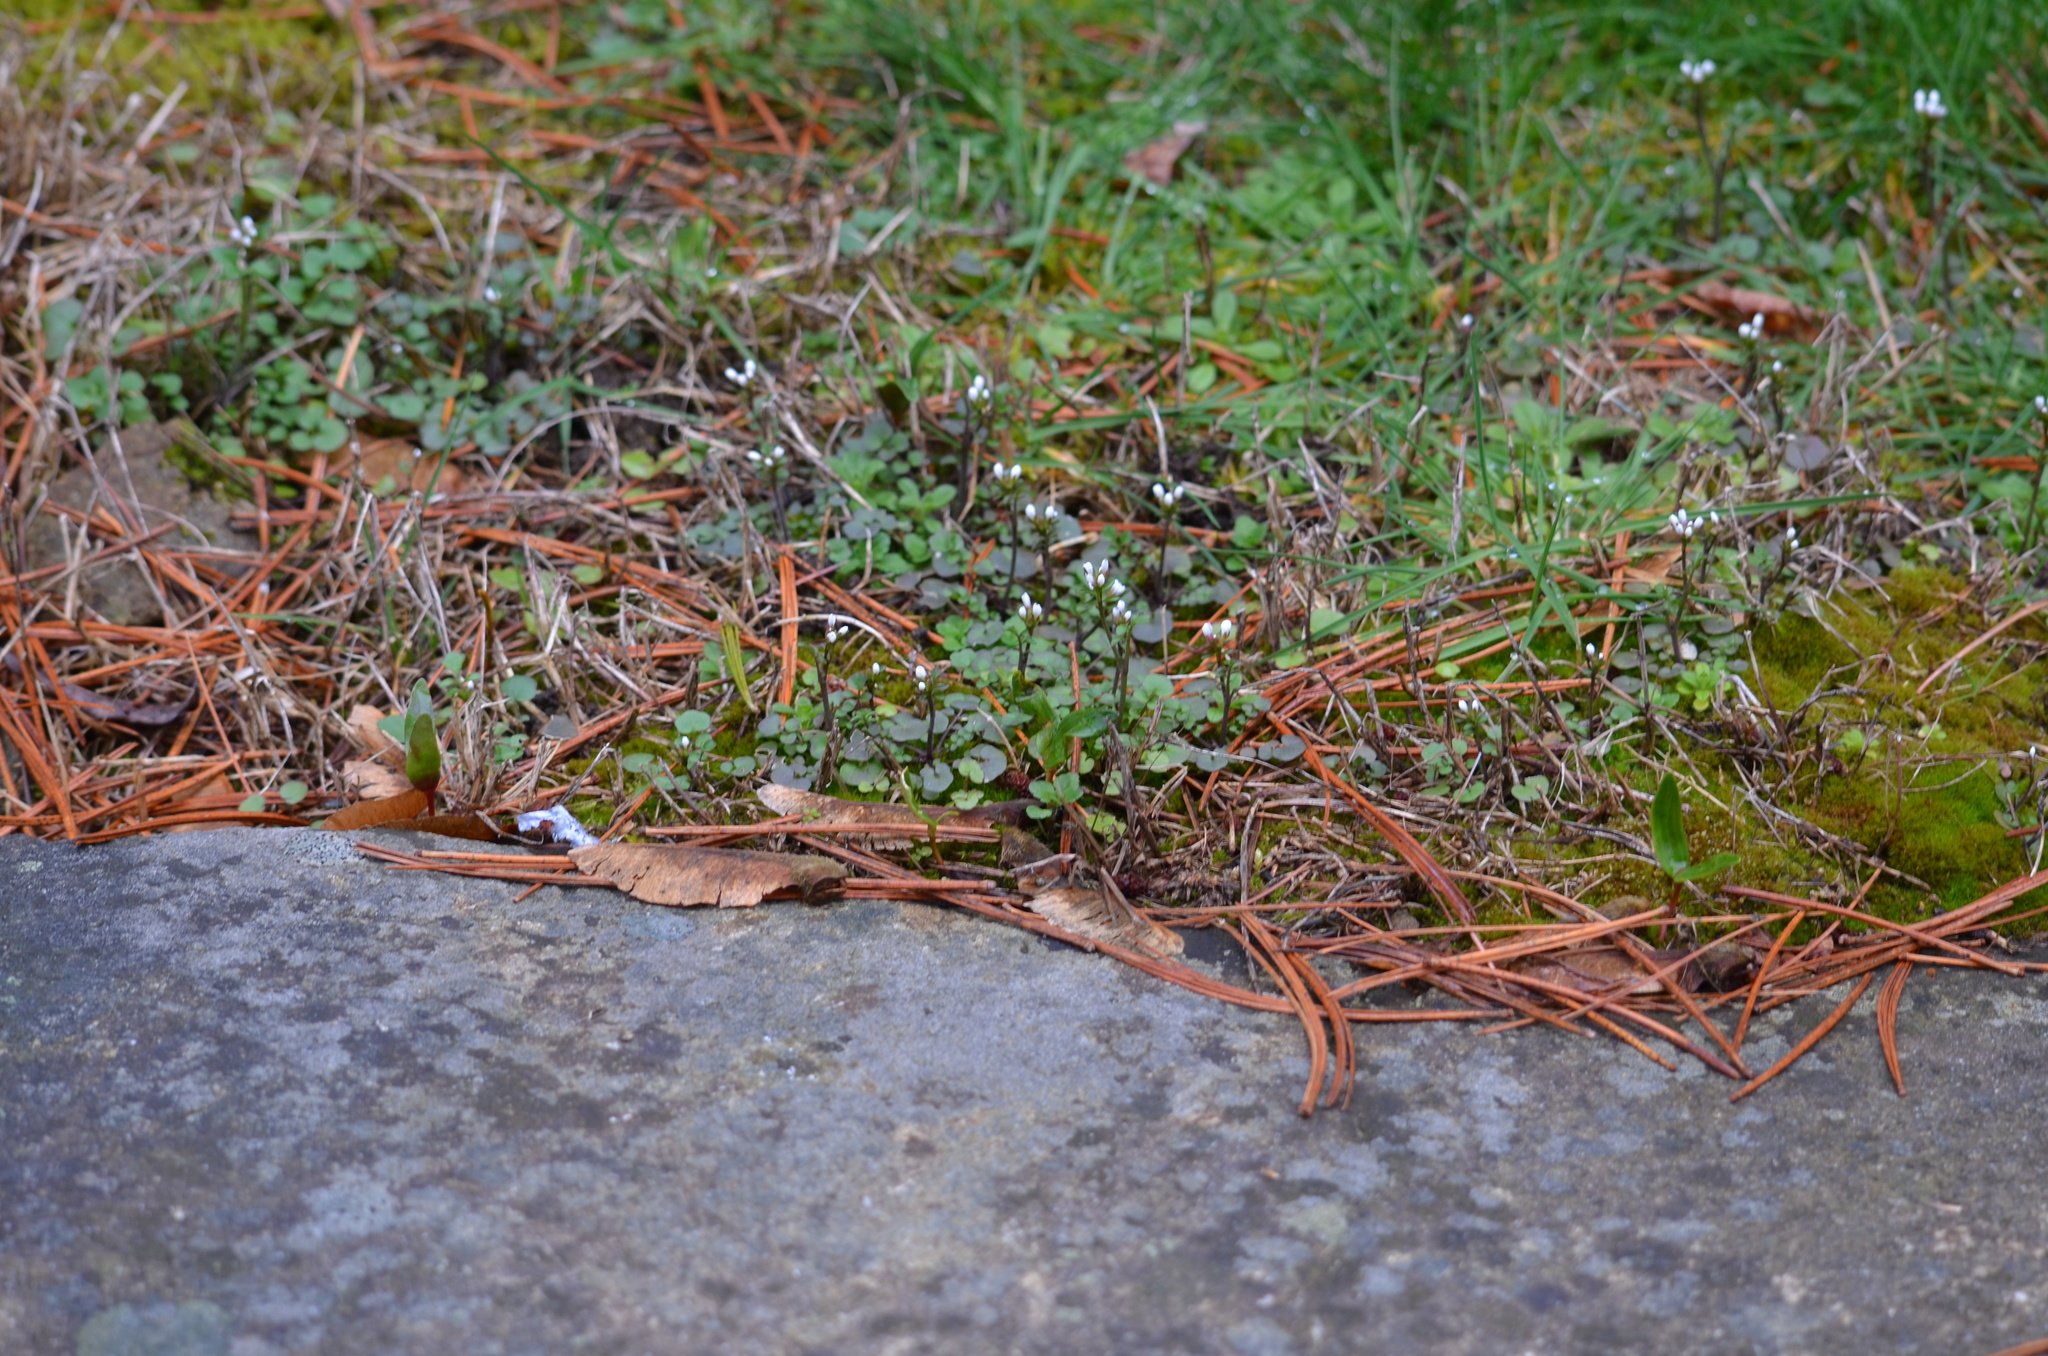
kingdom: Plantae
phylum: Tracheophyta
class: Magnoliopsida
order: Brassicales
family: Brassicaceae
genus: Cardamine
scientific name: Cardamine hirsuta
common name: Hairy bittercress
